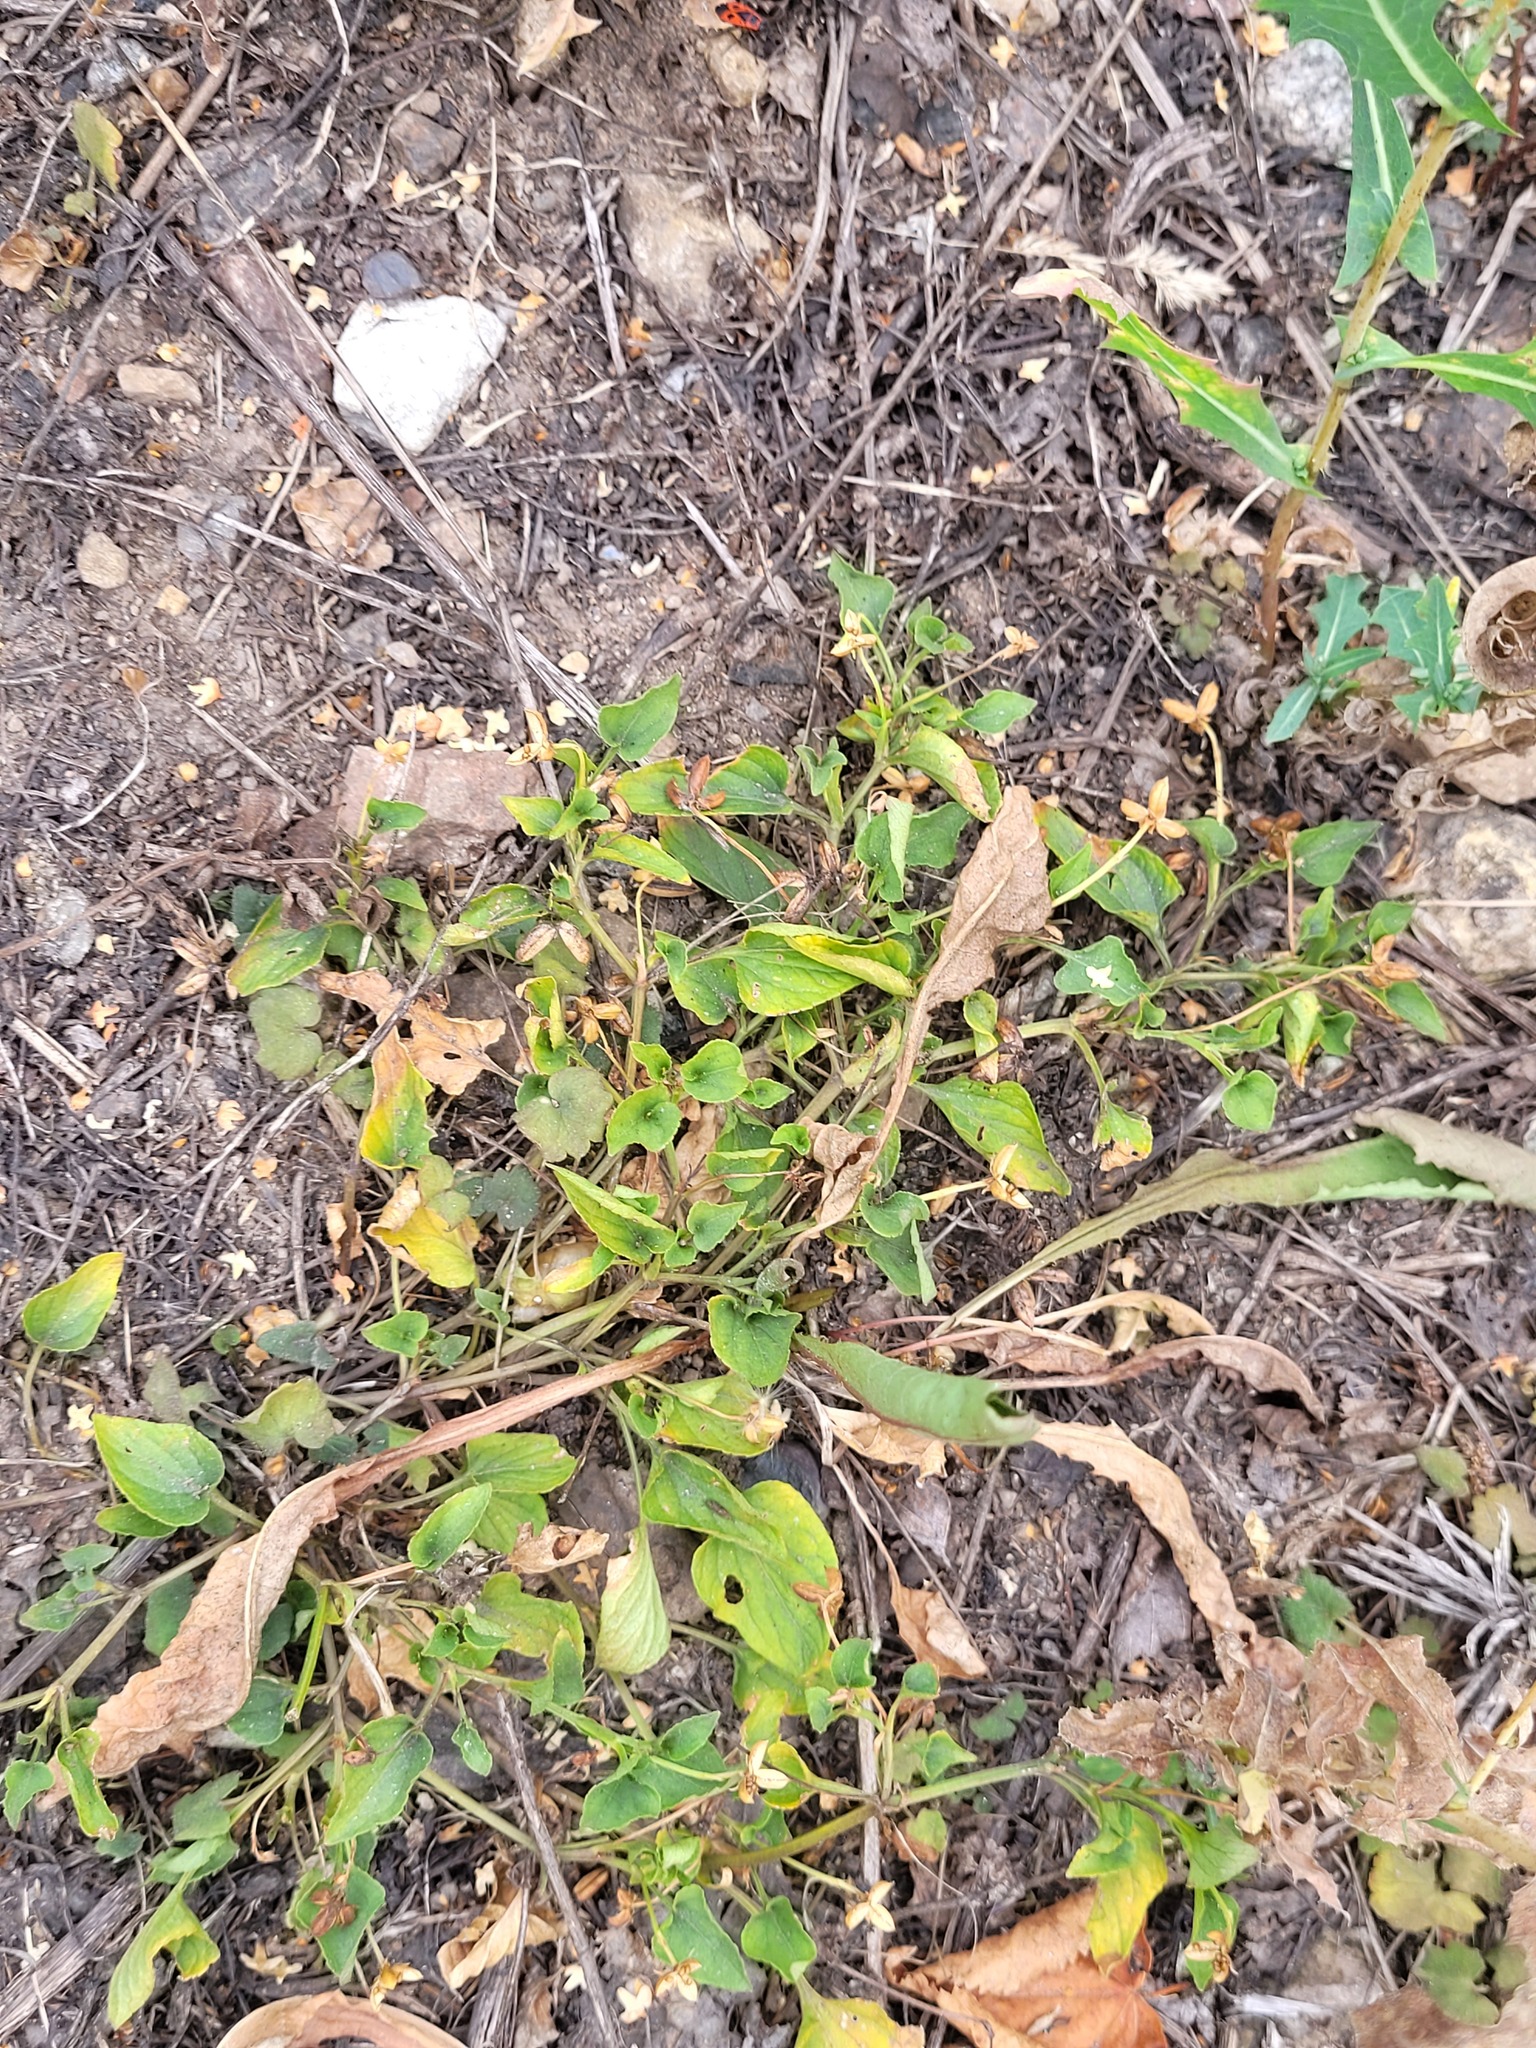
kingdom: Plantae
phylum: Tracheophyta
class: Magnoliopsida
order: Malpighiales
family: Violaceae
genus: Viola
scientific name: Viola canina
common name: Heath dog-violet
